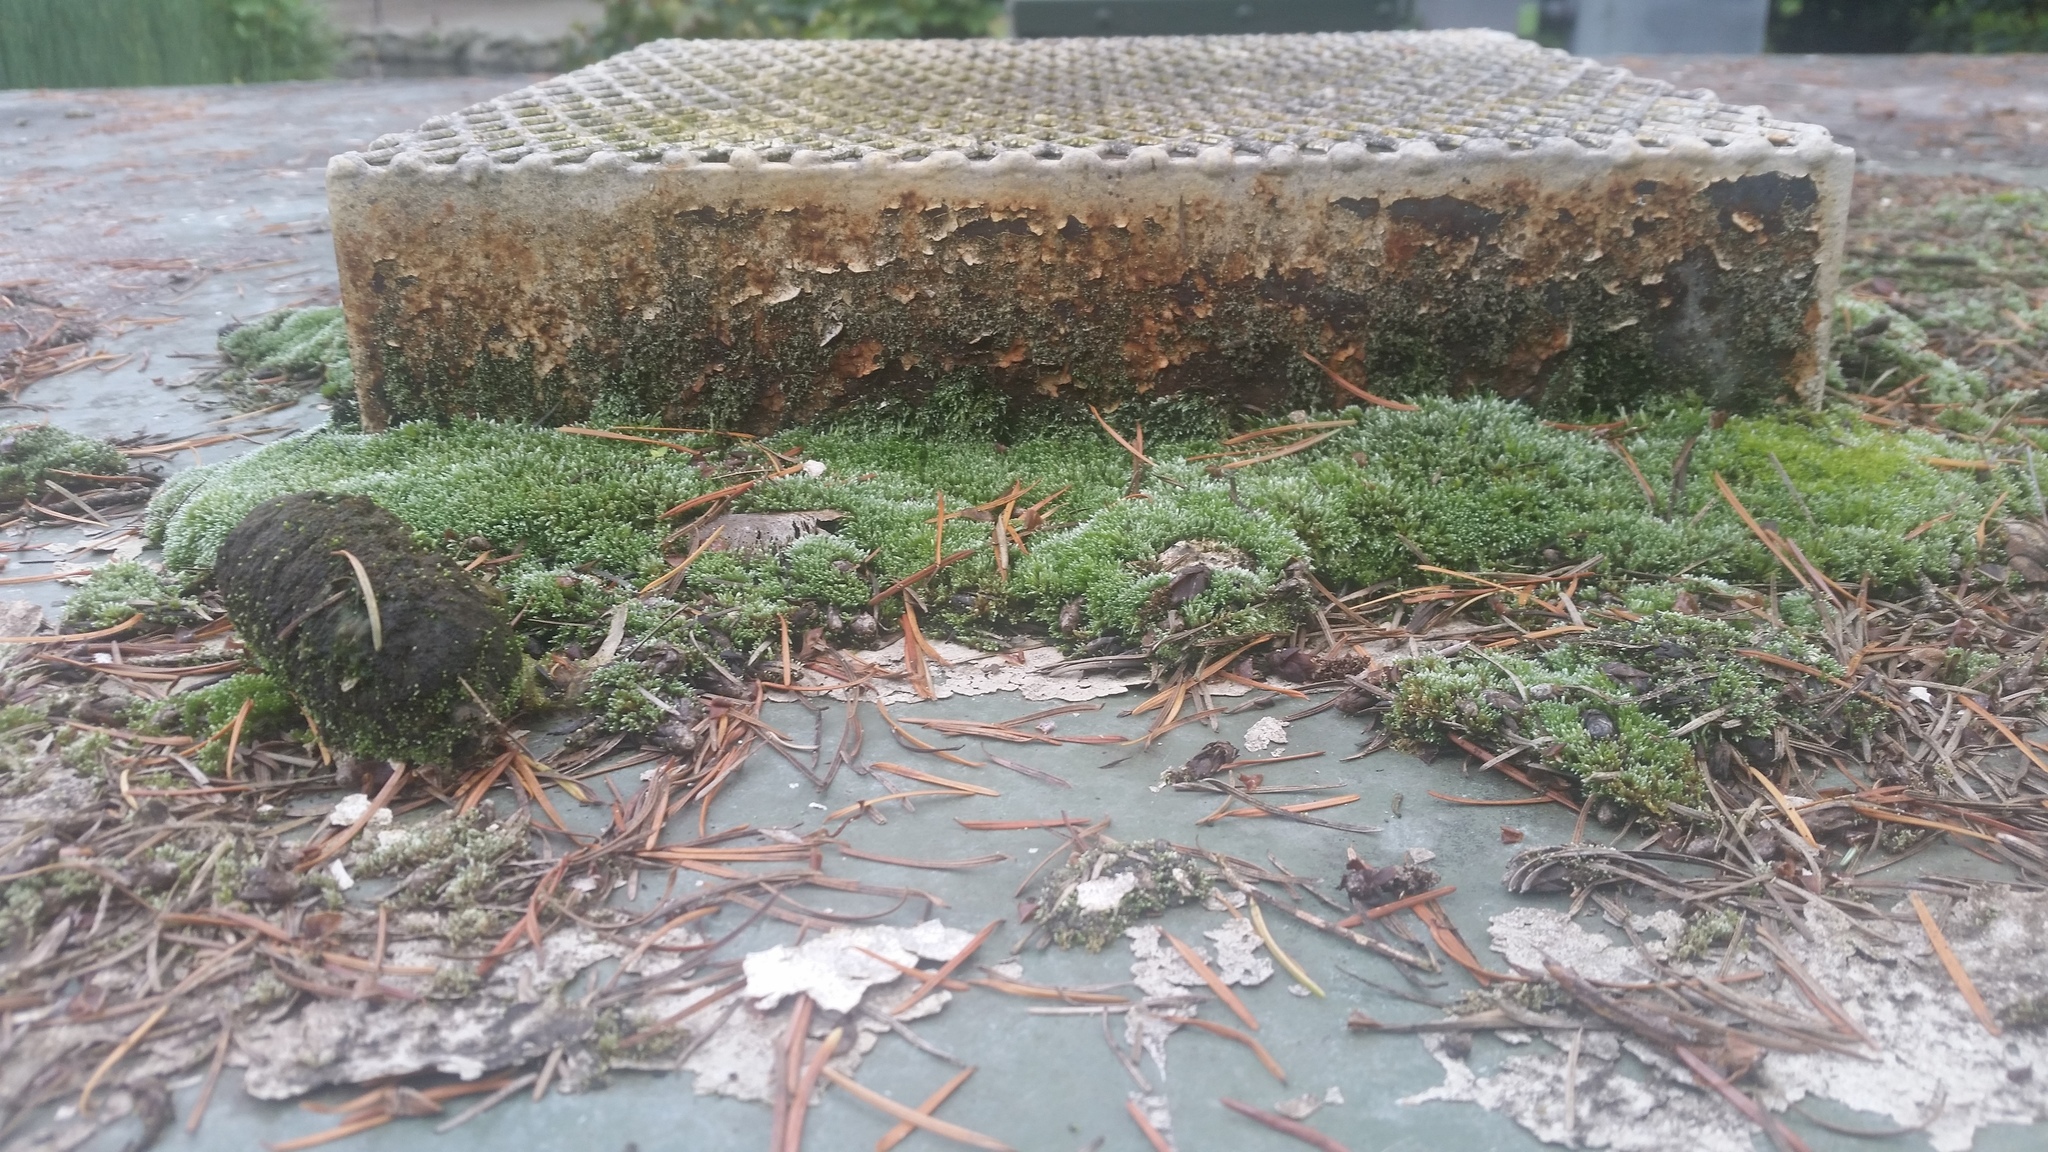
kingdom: Plantae
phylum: Bryophyta
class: Bryopsida
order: Bryales
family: Bryaceae
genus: Bryum
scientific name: Bryum argenteum
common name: Silver-moss
